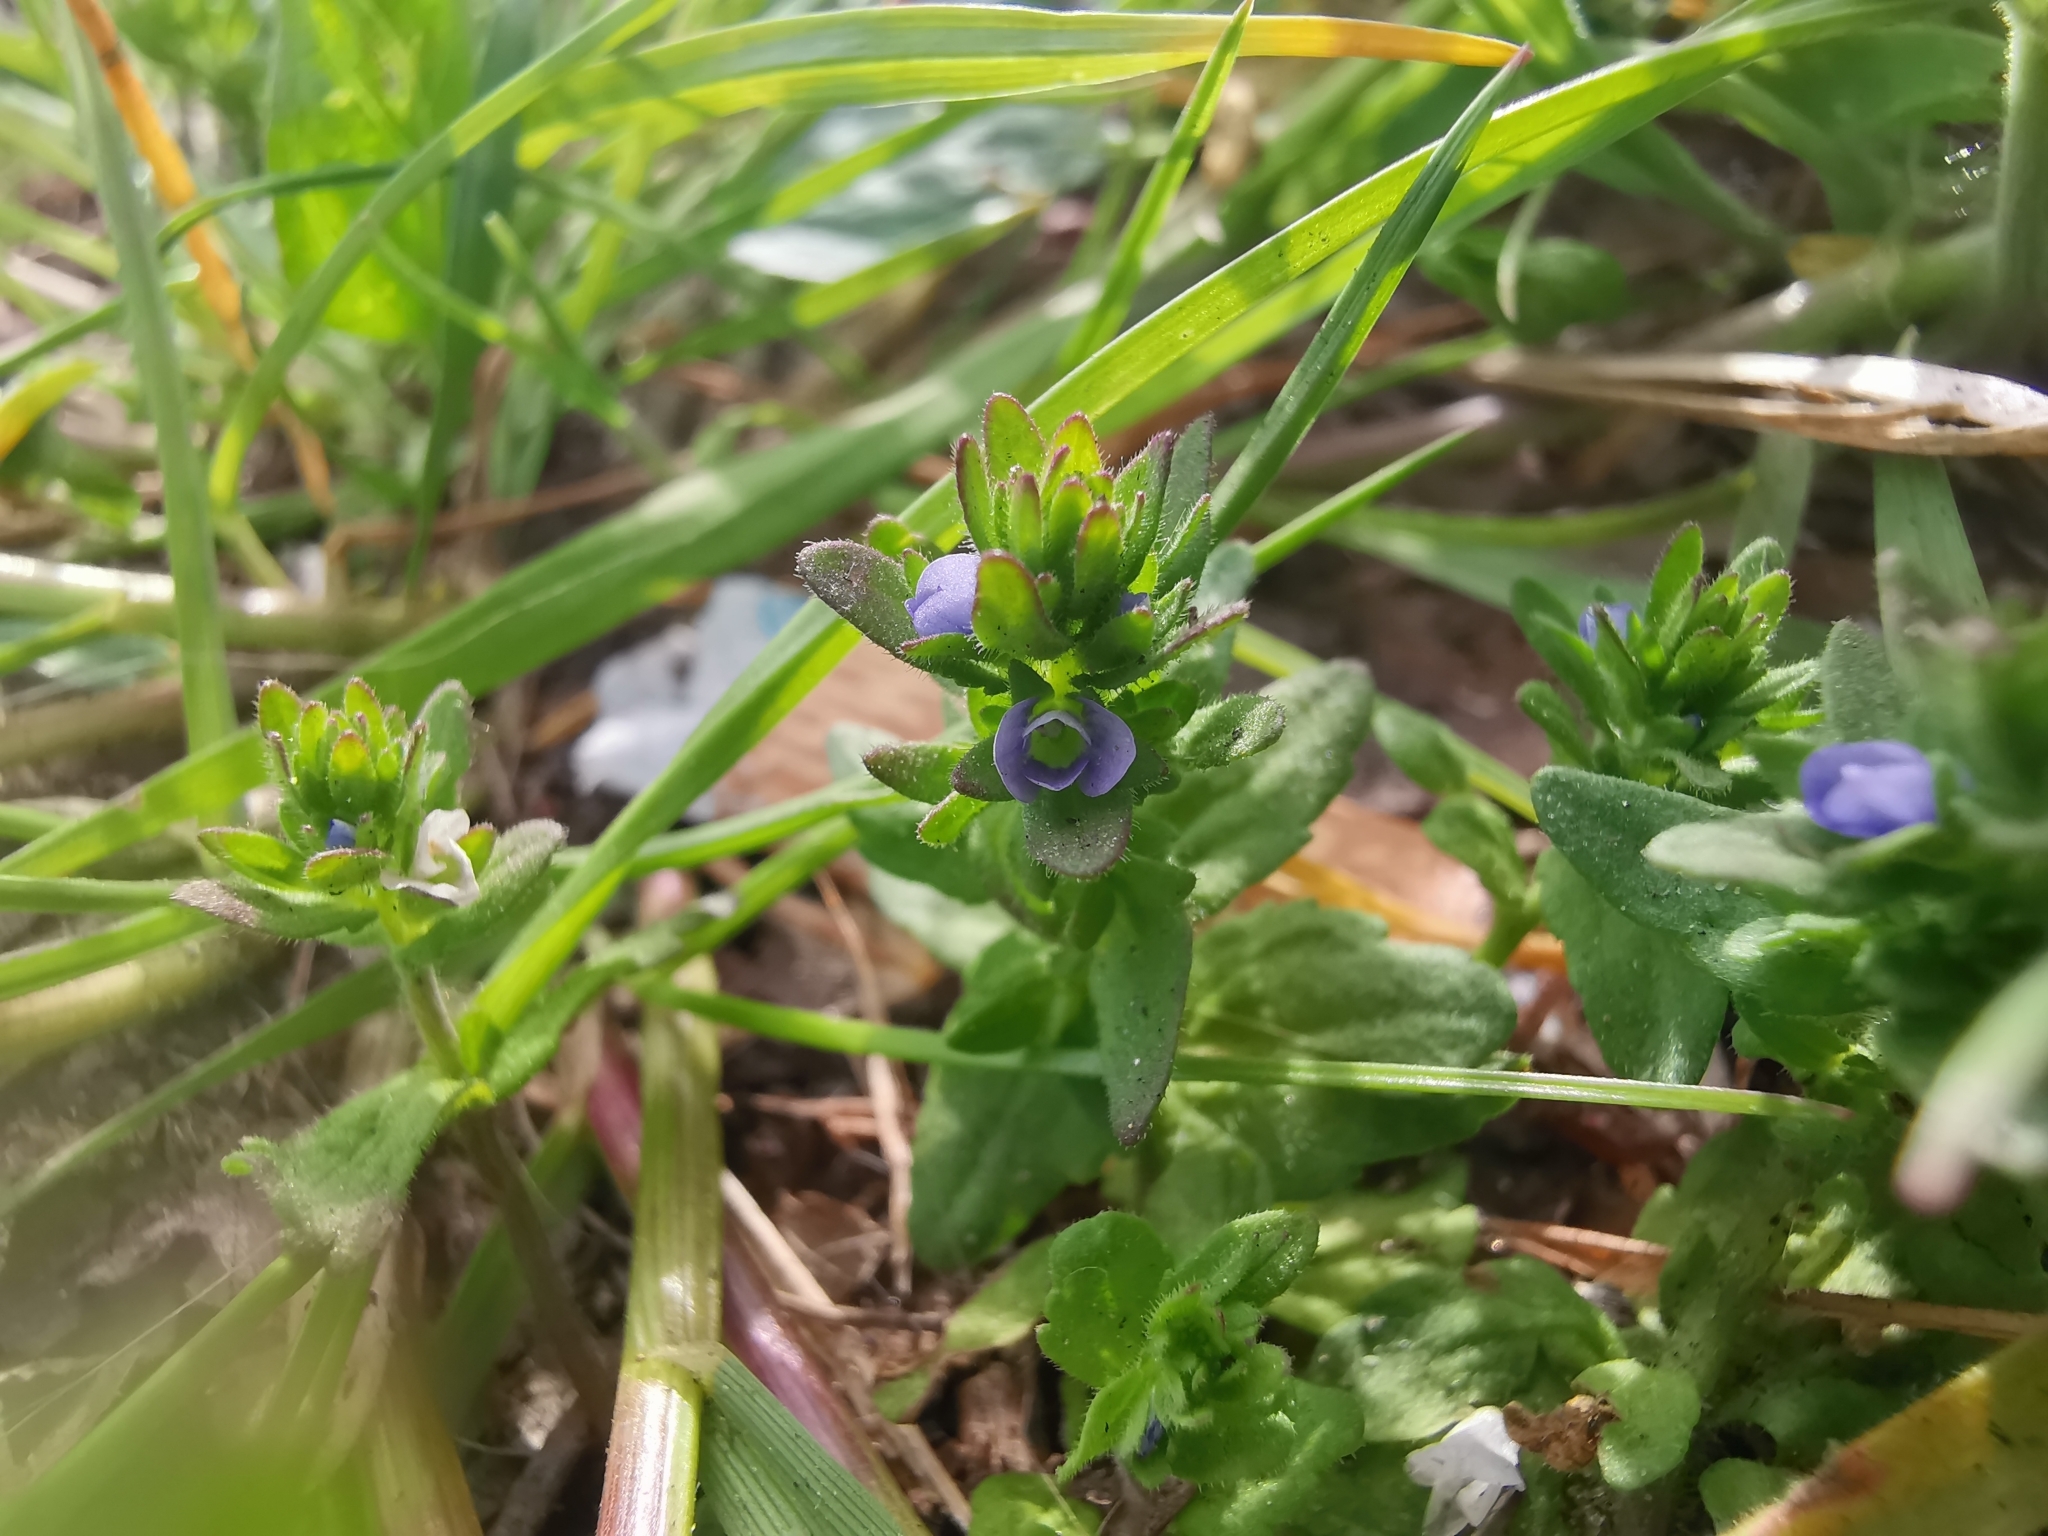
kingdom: Plantae
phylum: Tracheophyta
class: Magnoliopsida
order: Lamiales
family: Plantaginaceae
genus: Veronica
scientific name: Veronica arvensis
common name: Corn speedwell
